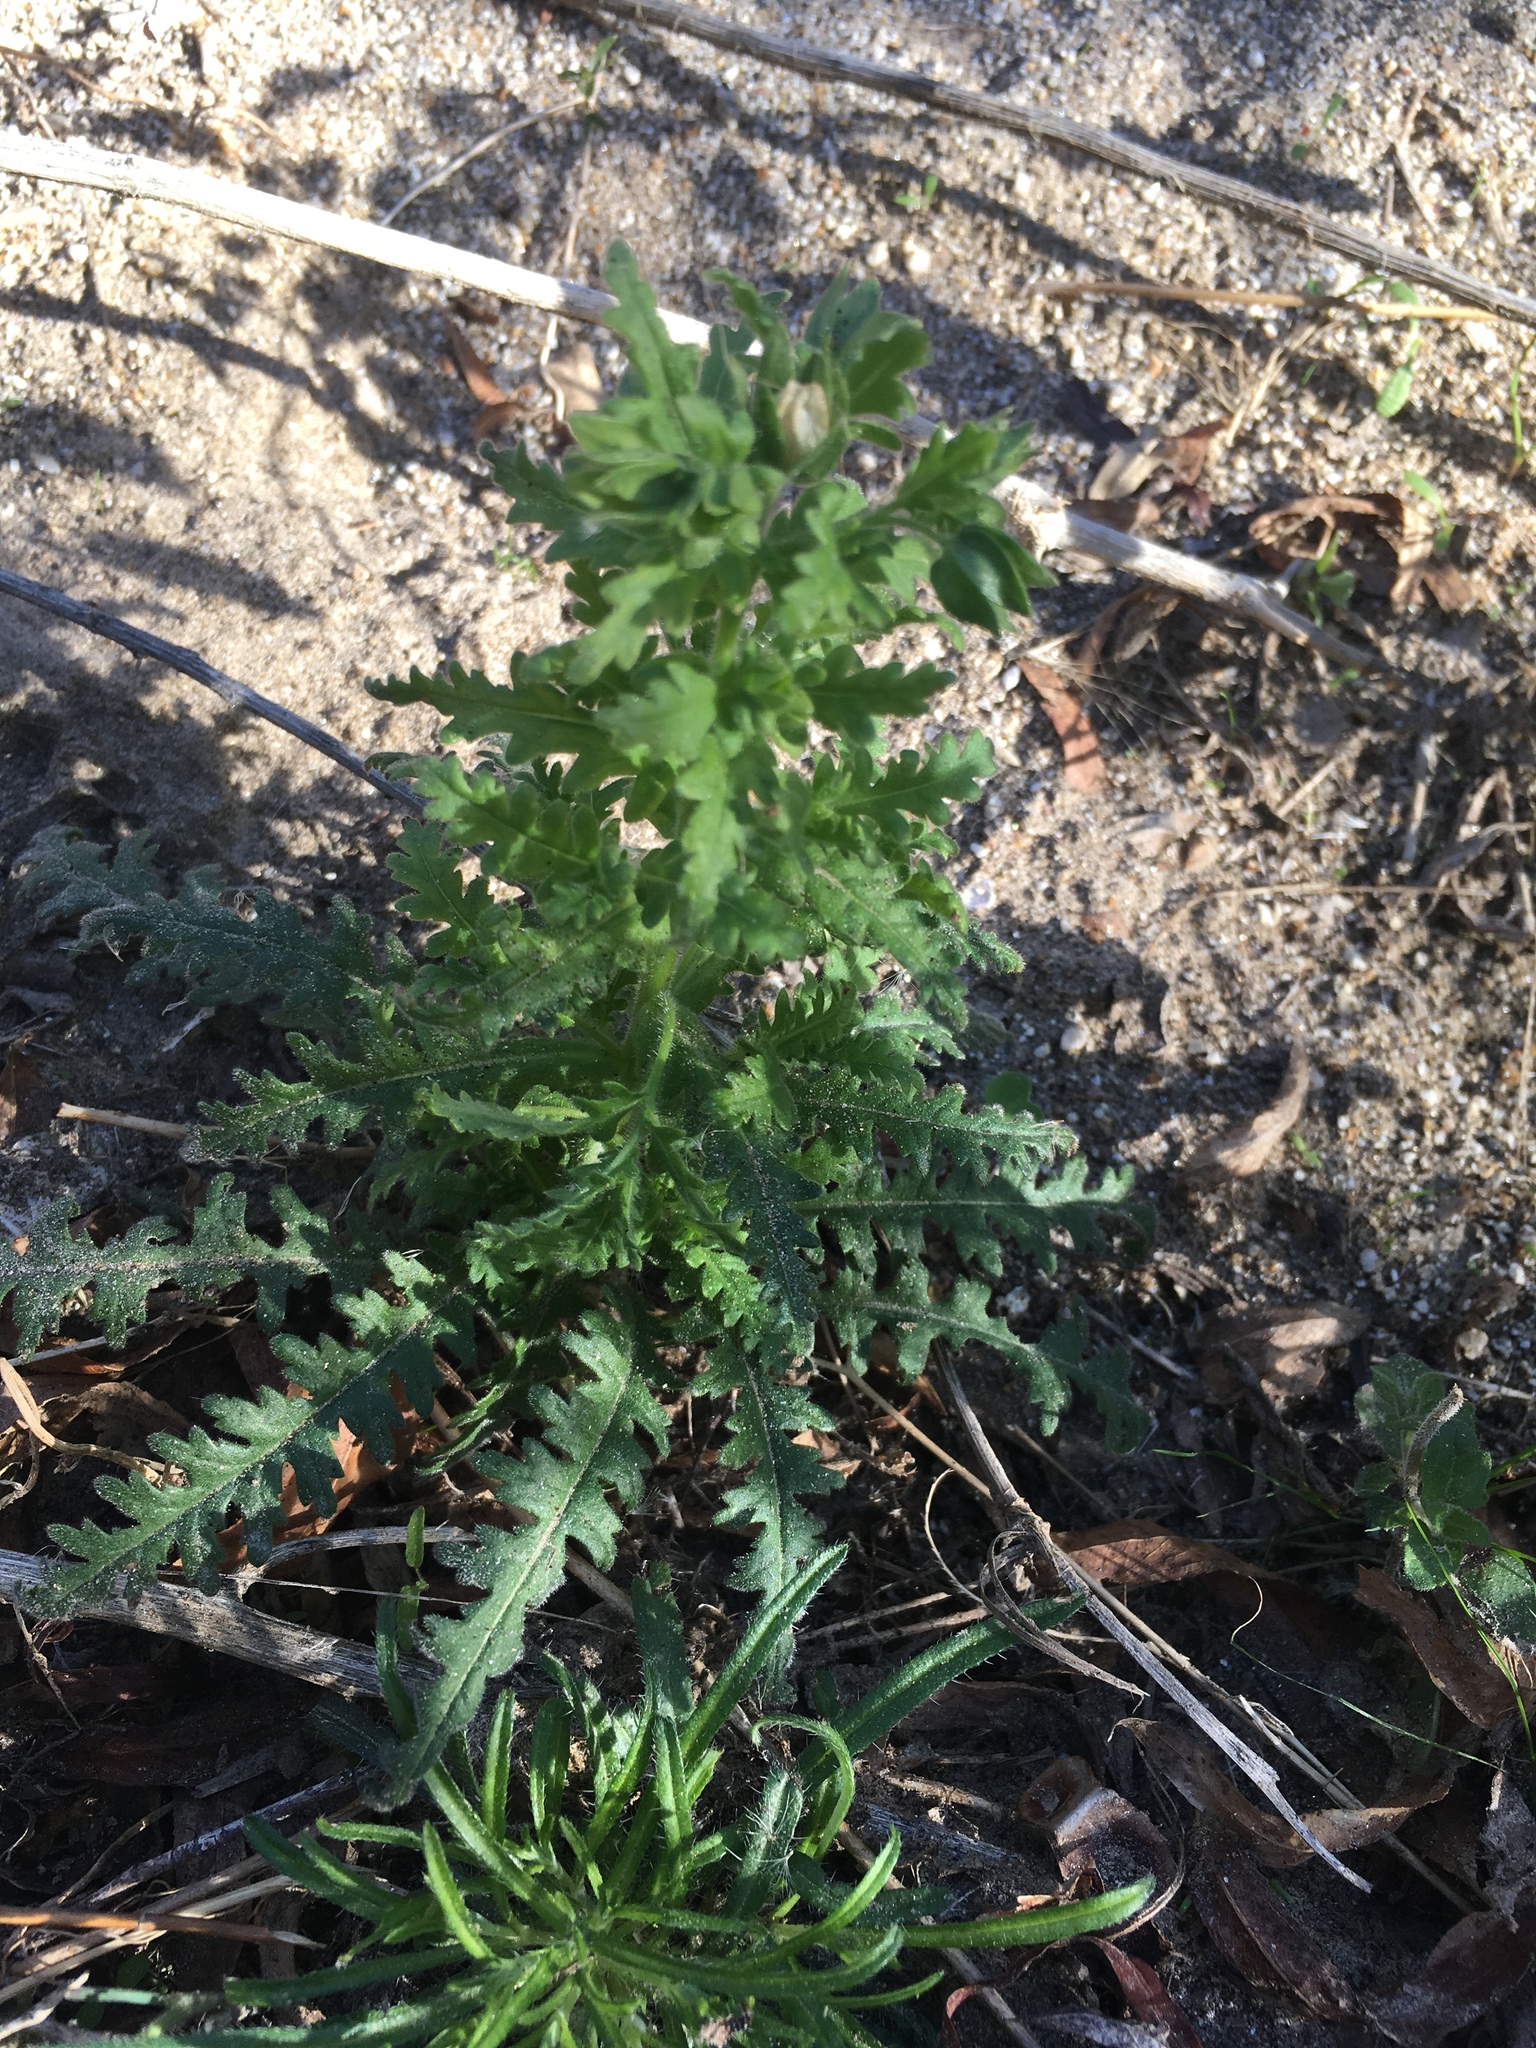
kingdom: Plantae
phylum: Tracheophyta
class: Magnoliopsida
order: Boraginales
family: Hydrophyllaceae
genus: Emmenanthe
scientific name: Emmenanthe penduliflora
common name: Whispering-bells
